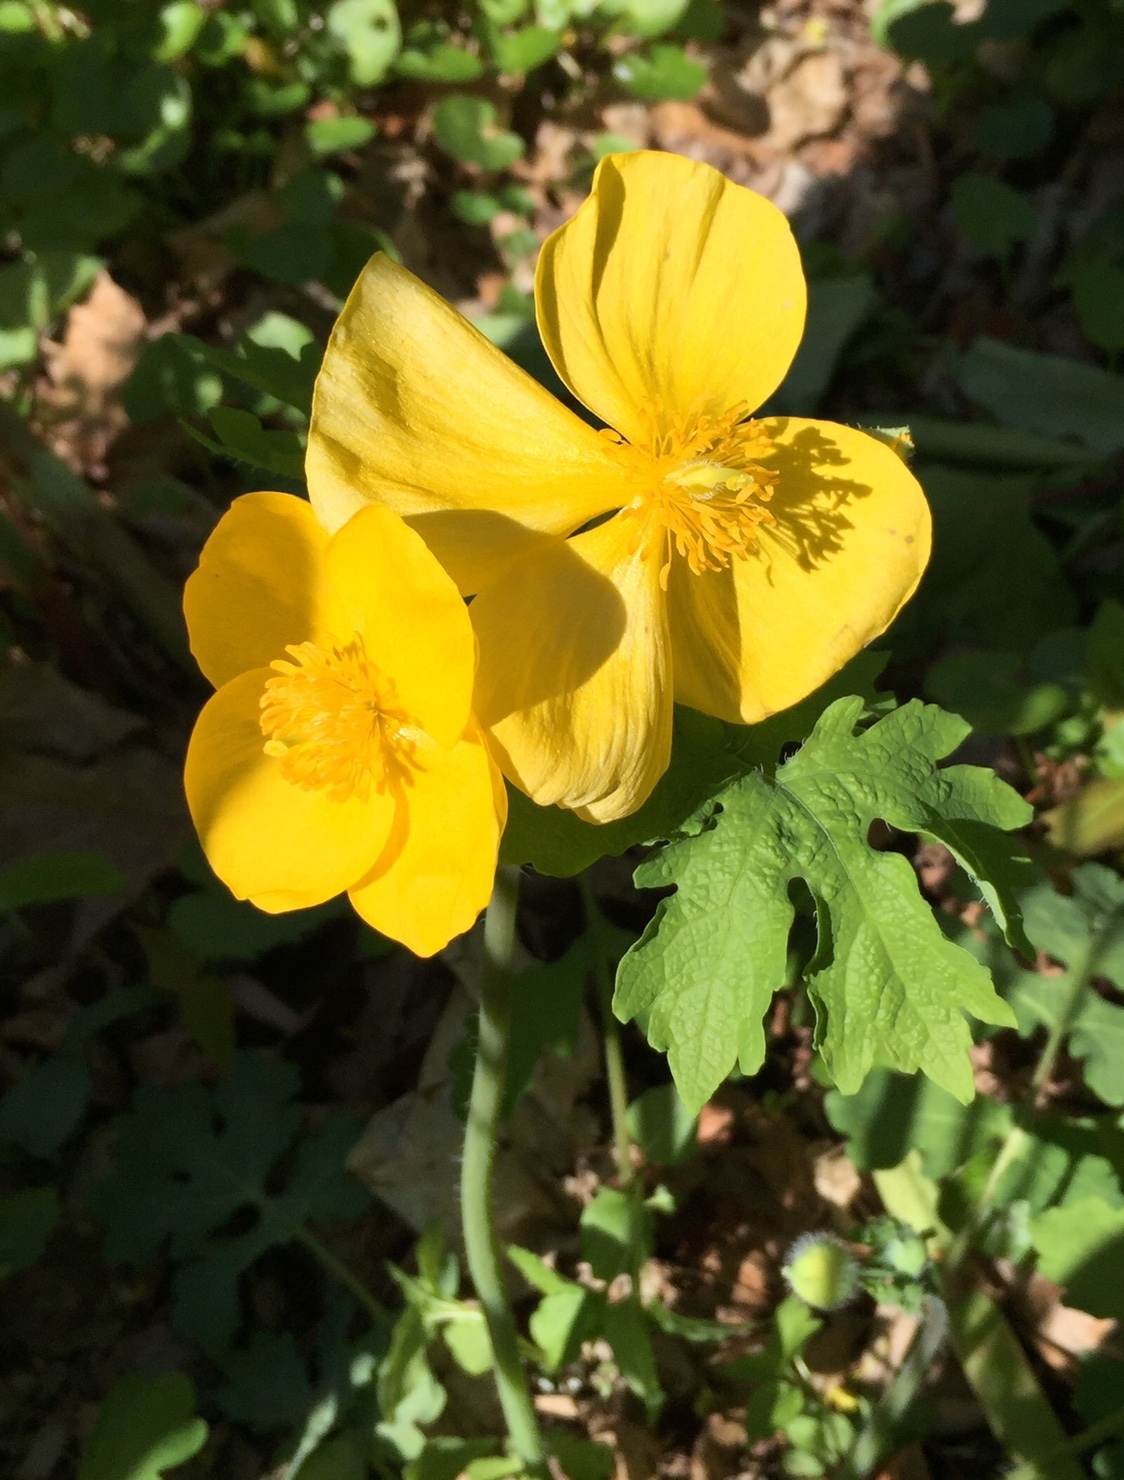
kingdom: Plantae
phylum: Tracheophyta
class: Magnoliopsida
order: Ranunculales
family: Papaveraceae
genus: Stylophorum
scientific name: Stylophorum diphyllum
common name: Celandine poppy
